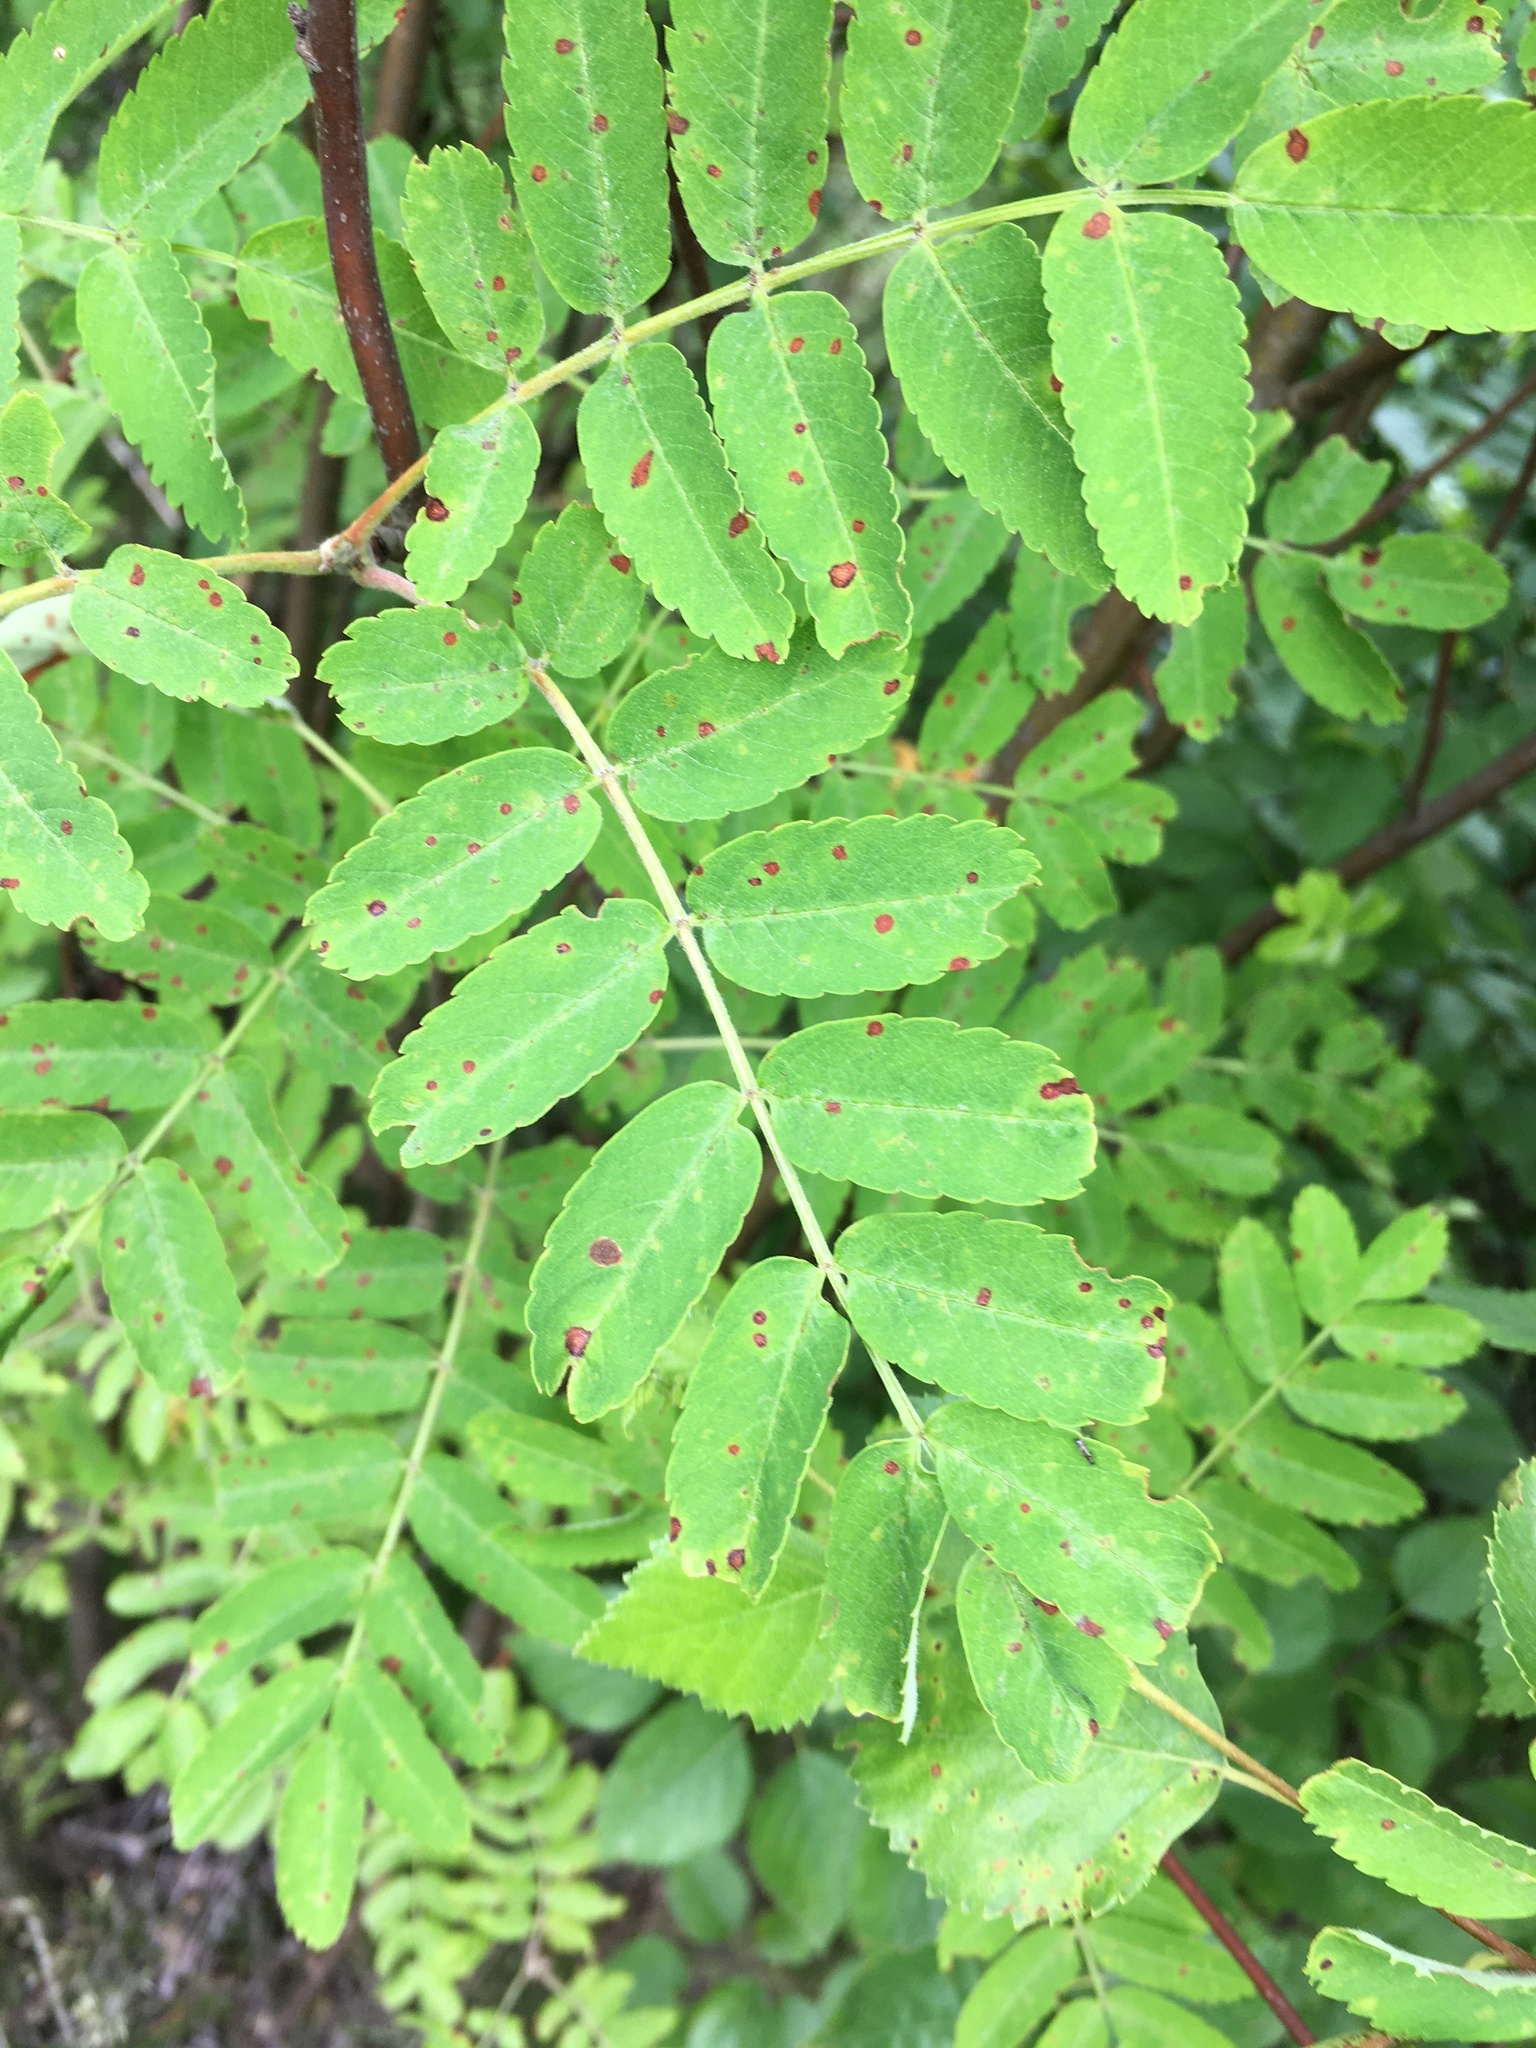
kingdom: Plantae
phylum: Tracheophyta
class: Magnoliopsida
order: Rosales
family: Rosaceae
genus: Sorbus
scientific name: Sorbus aucuparia
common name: Rowan
